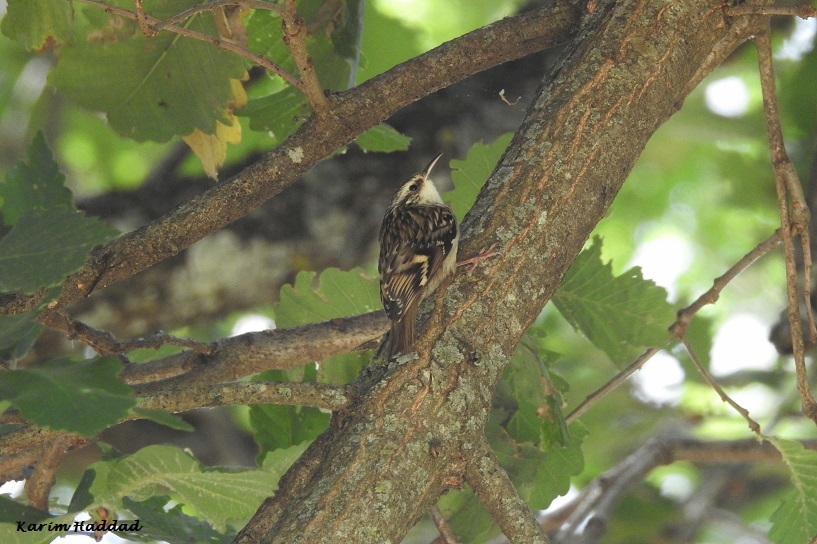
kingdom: Animalia
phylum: Chordata
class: Aves
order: Passeriformes
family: Certhiidae
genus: Certhia
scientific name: Certhia brachydactyla
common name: Short-toed treecreeper
